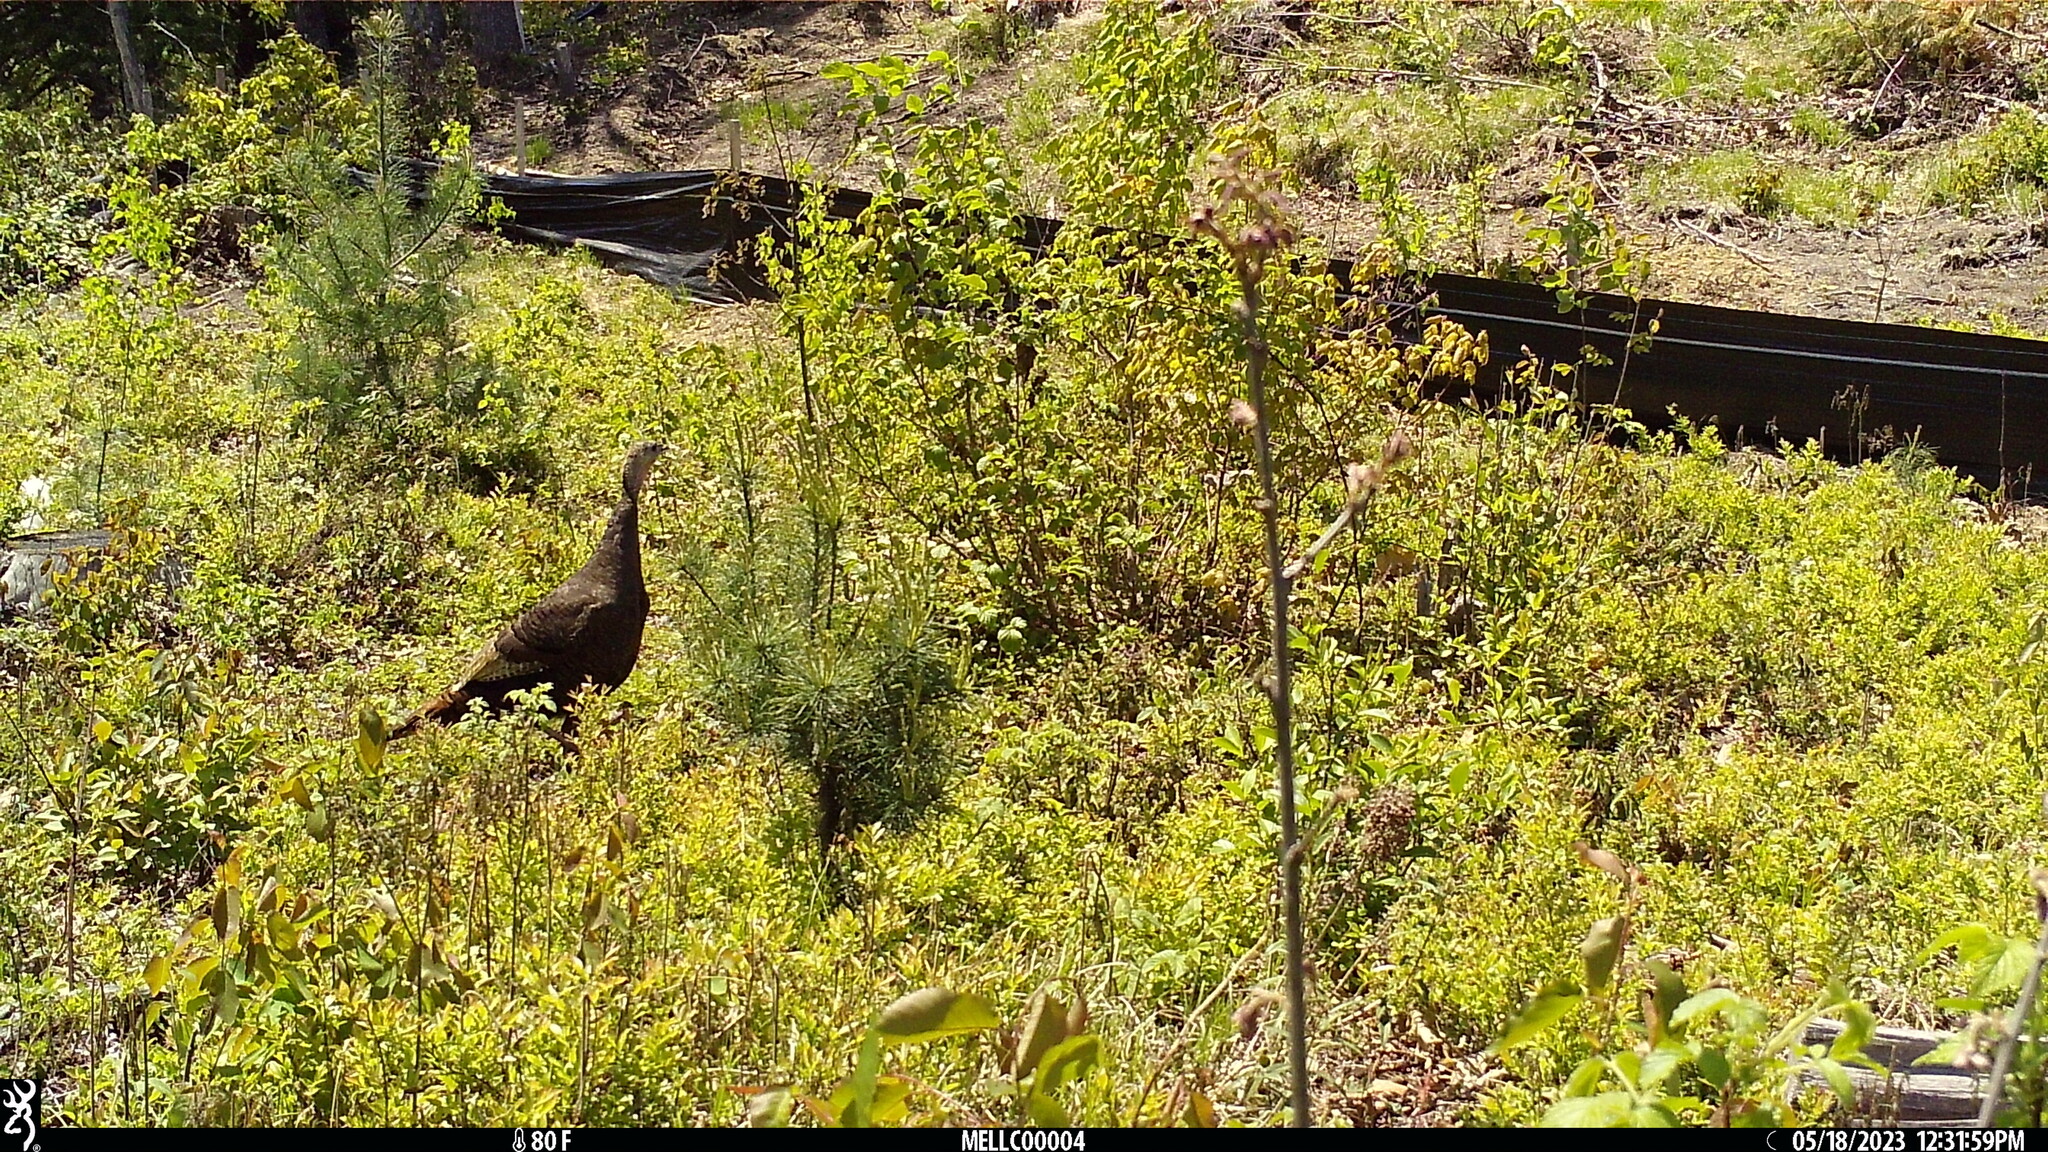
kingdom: Animalia
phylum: Chordata
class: Aves
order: Galliformes
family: Phasianidae
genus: Meleagris
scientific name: Meleagris gallopavo
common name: Wild turkey
